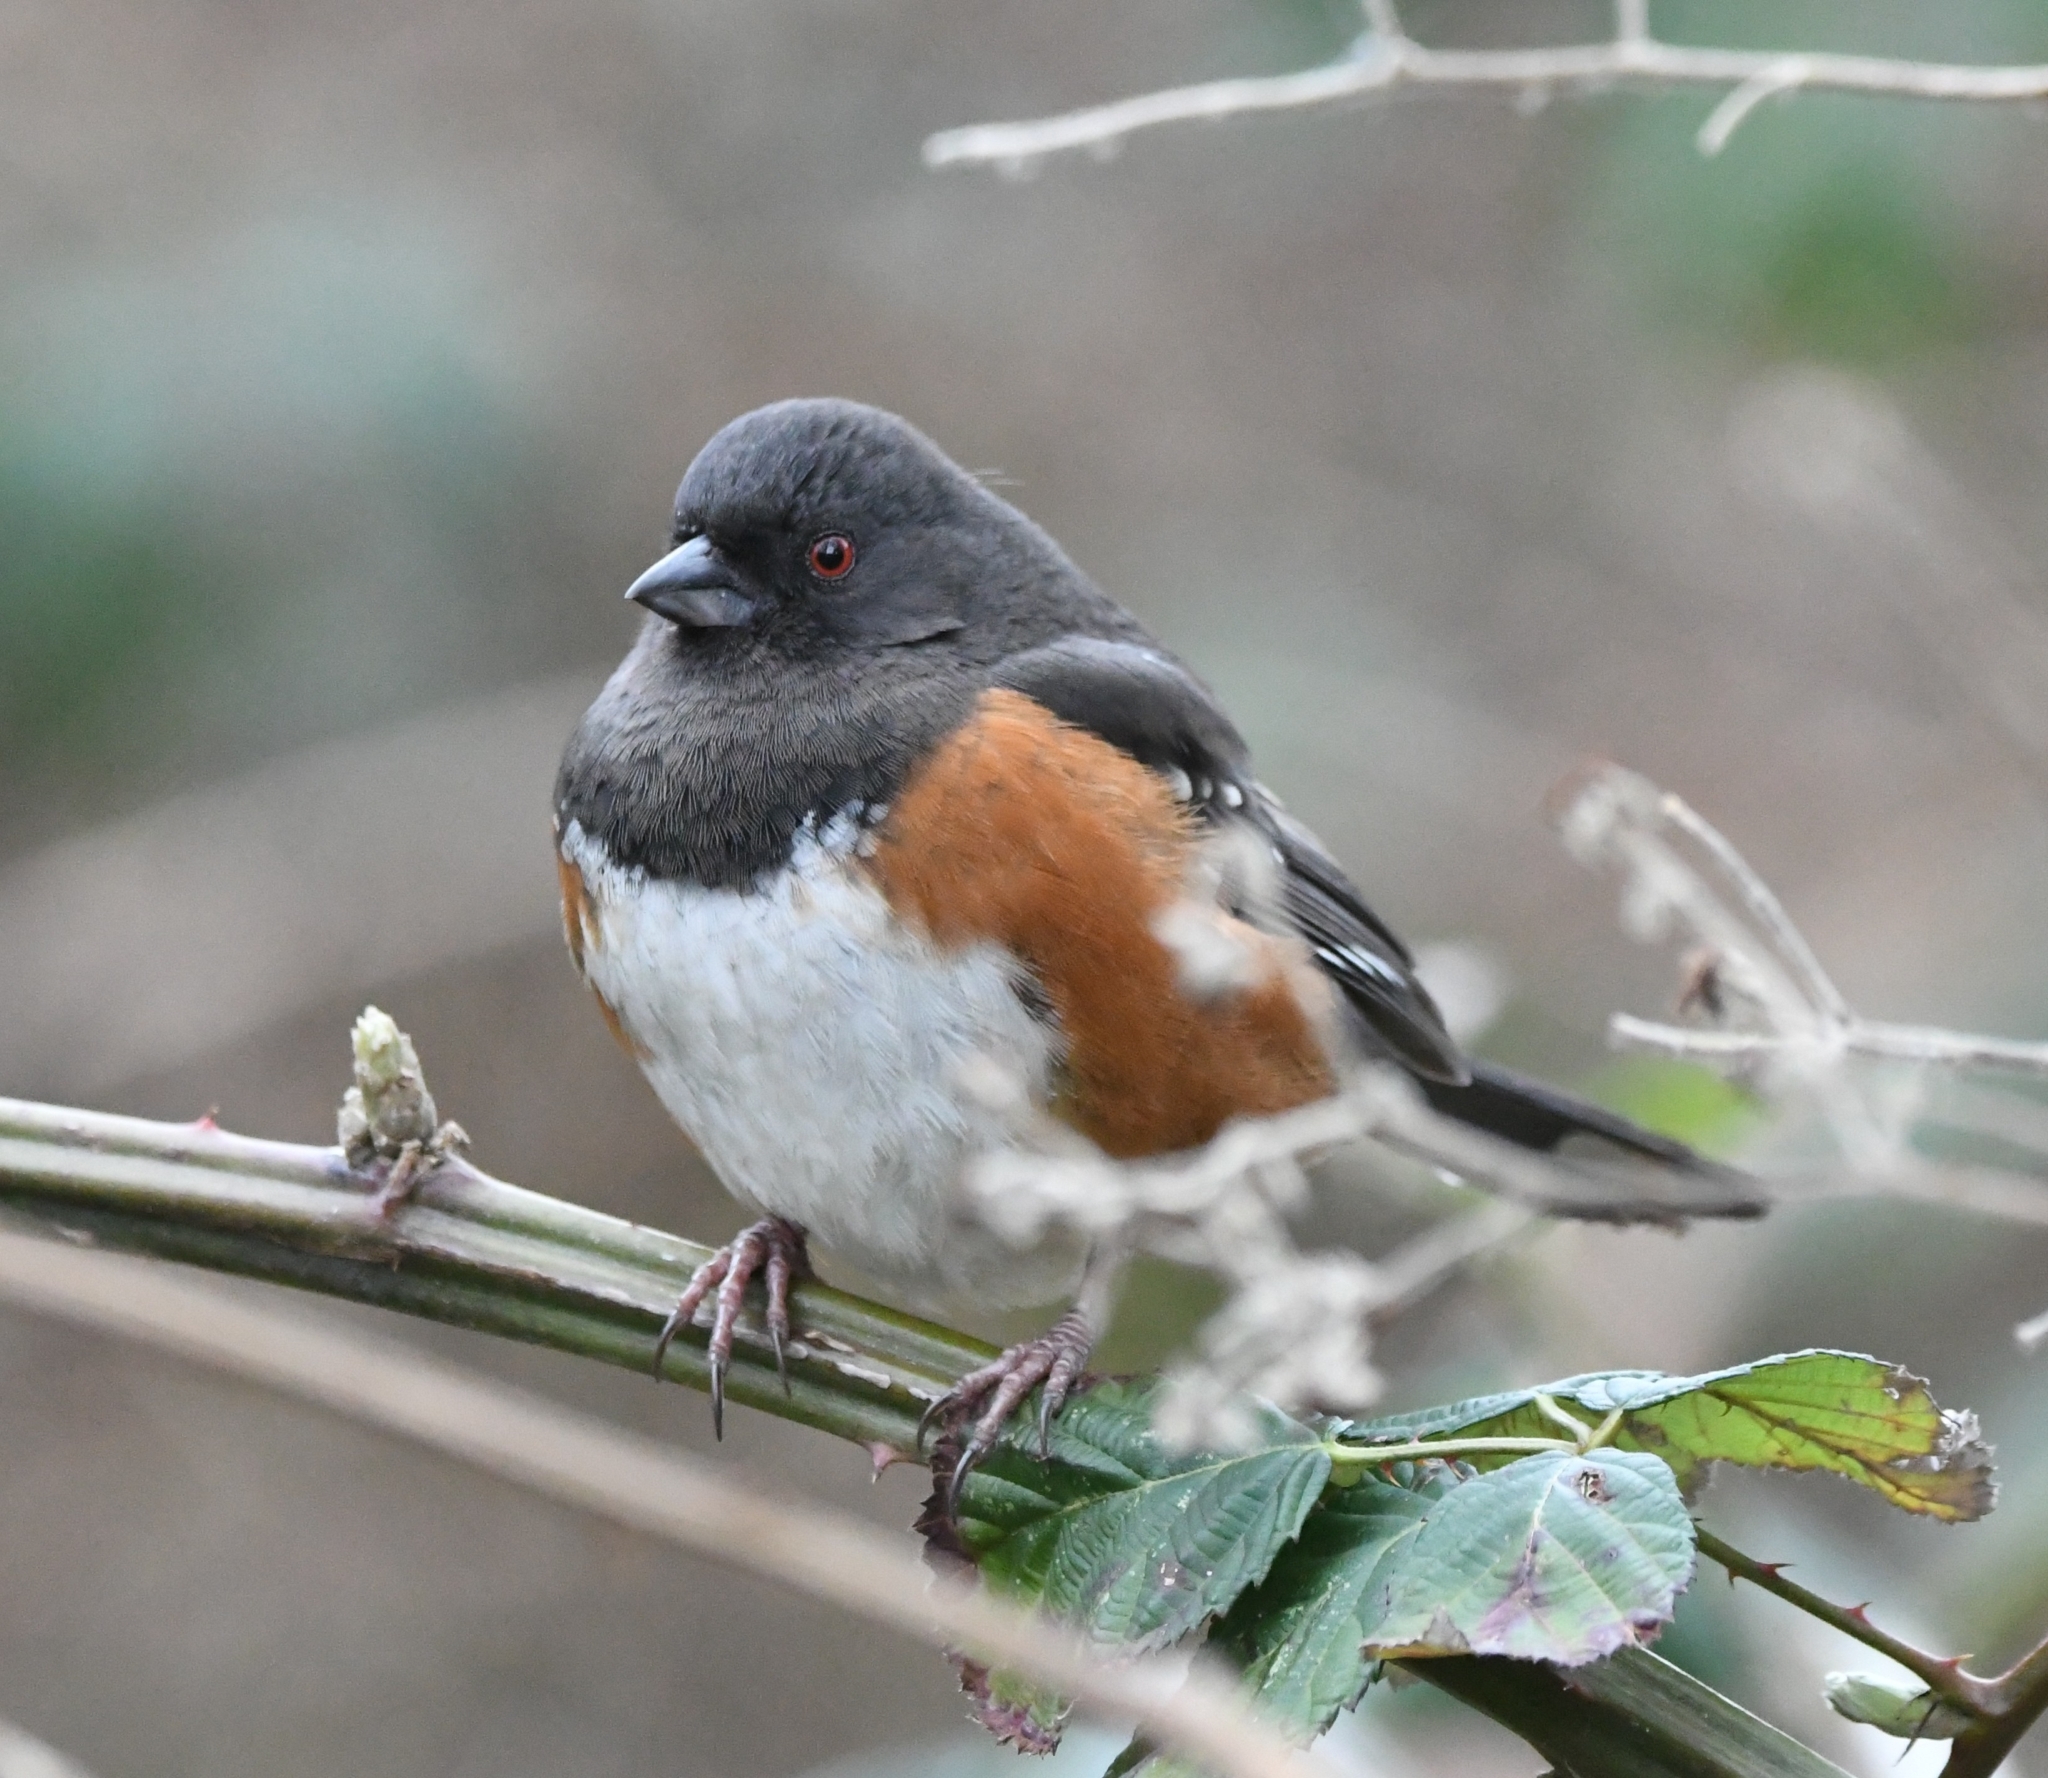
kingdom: Animalia
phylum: Chordata
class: Aves
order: Passeriformes
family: Passerellidae
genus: Pipilo
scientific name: Pipilo maculatus
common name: Spotted towhee
